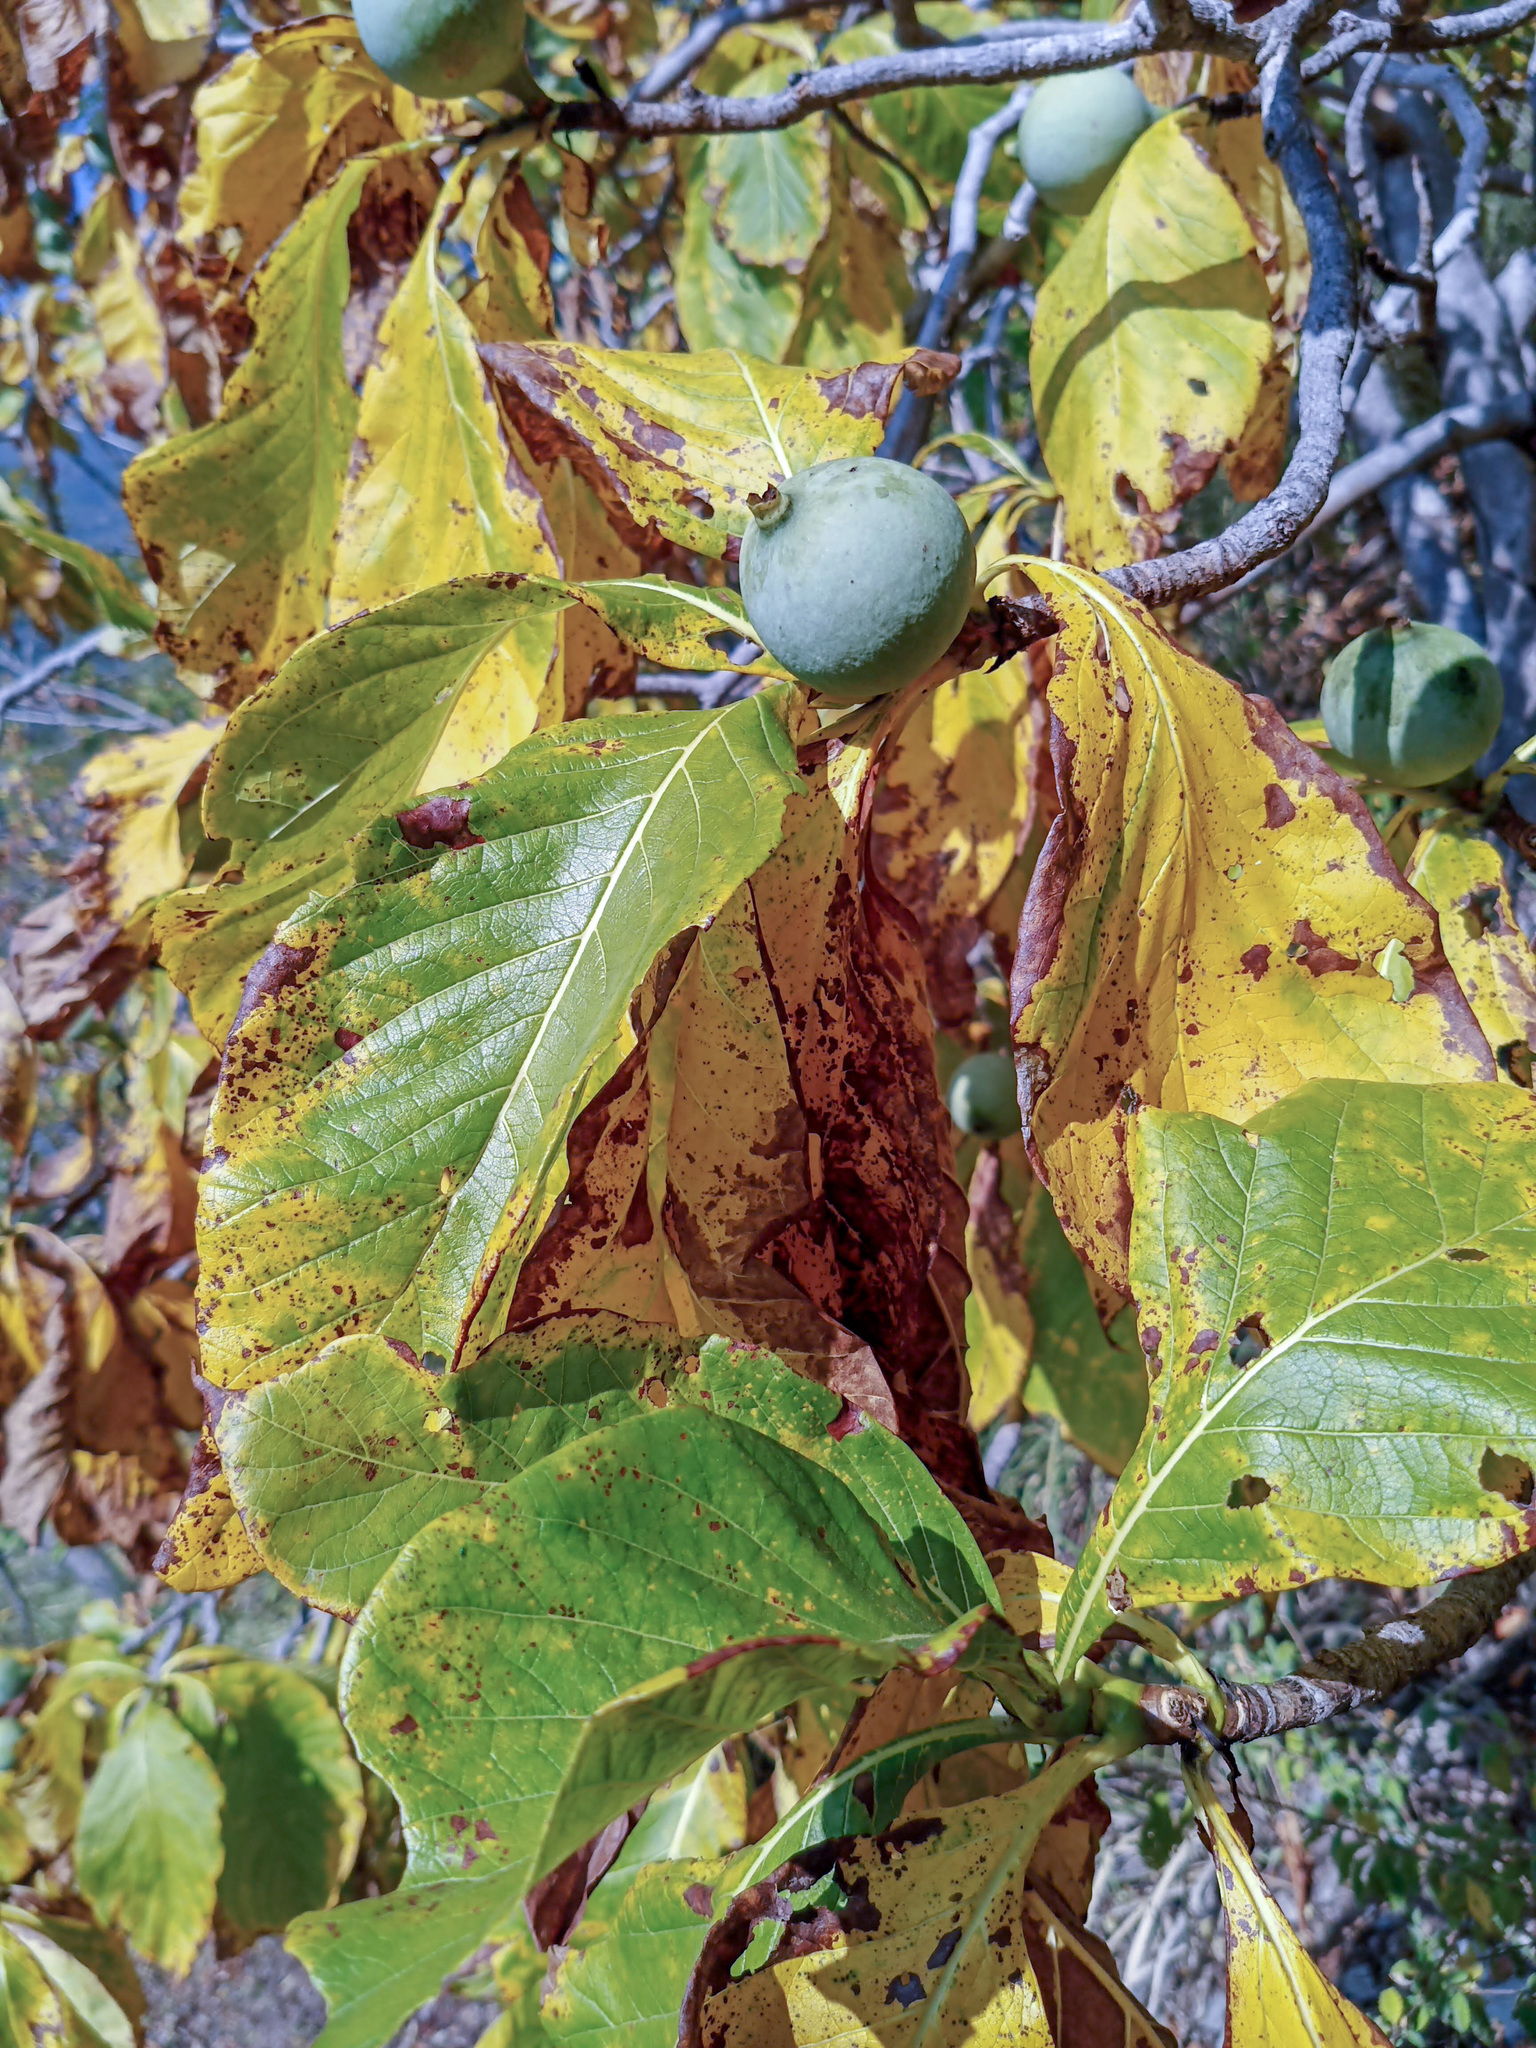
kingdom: Plantae
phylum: Tracheophyta
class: Magnoliopsida
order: Gentianales
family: Rubiaceae
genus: Genipa
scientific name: Genipa americana
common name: Genipap
